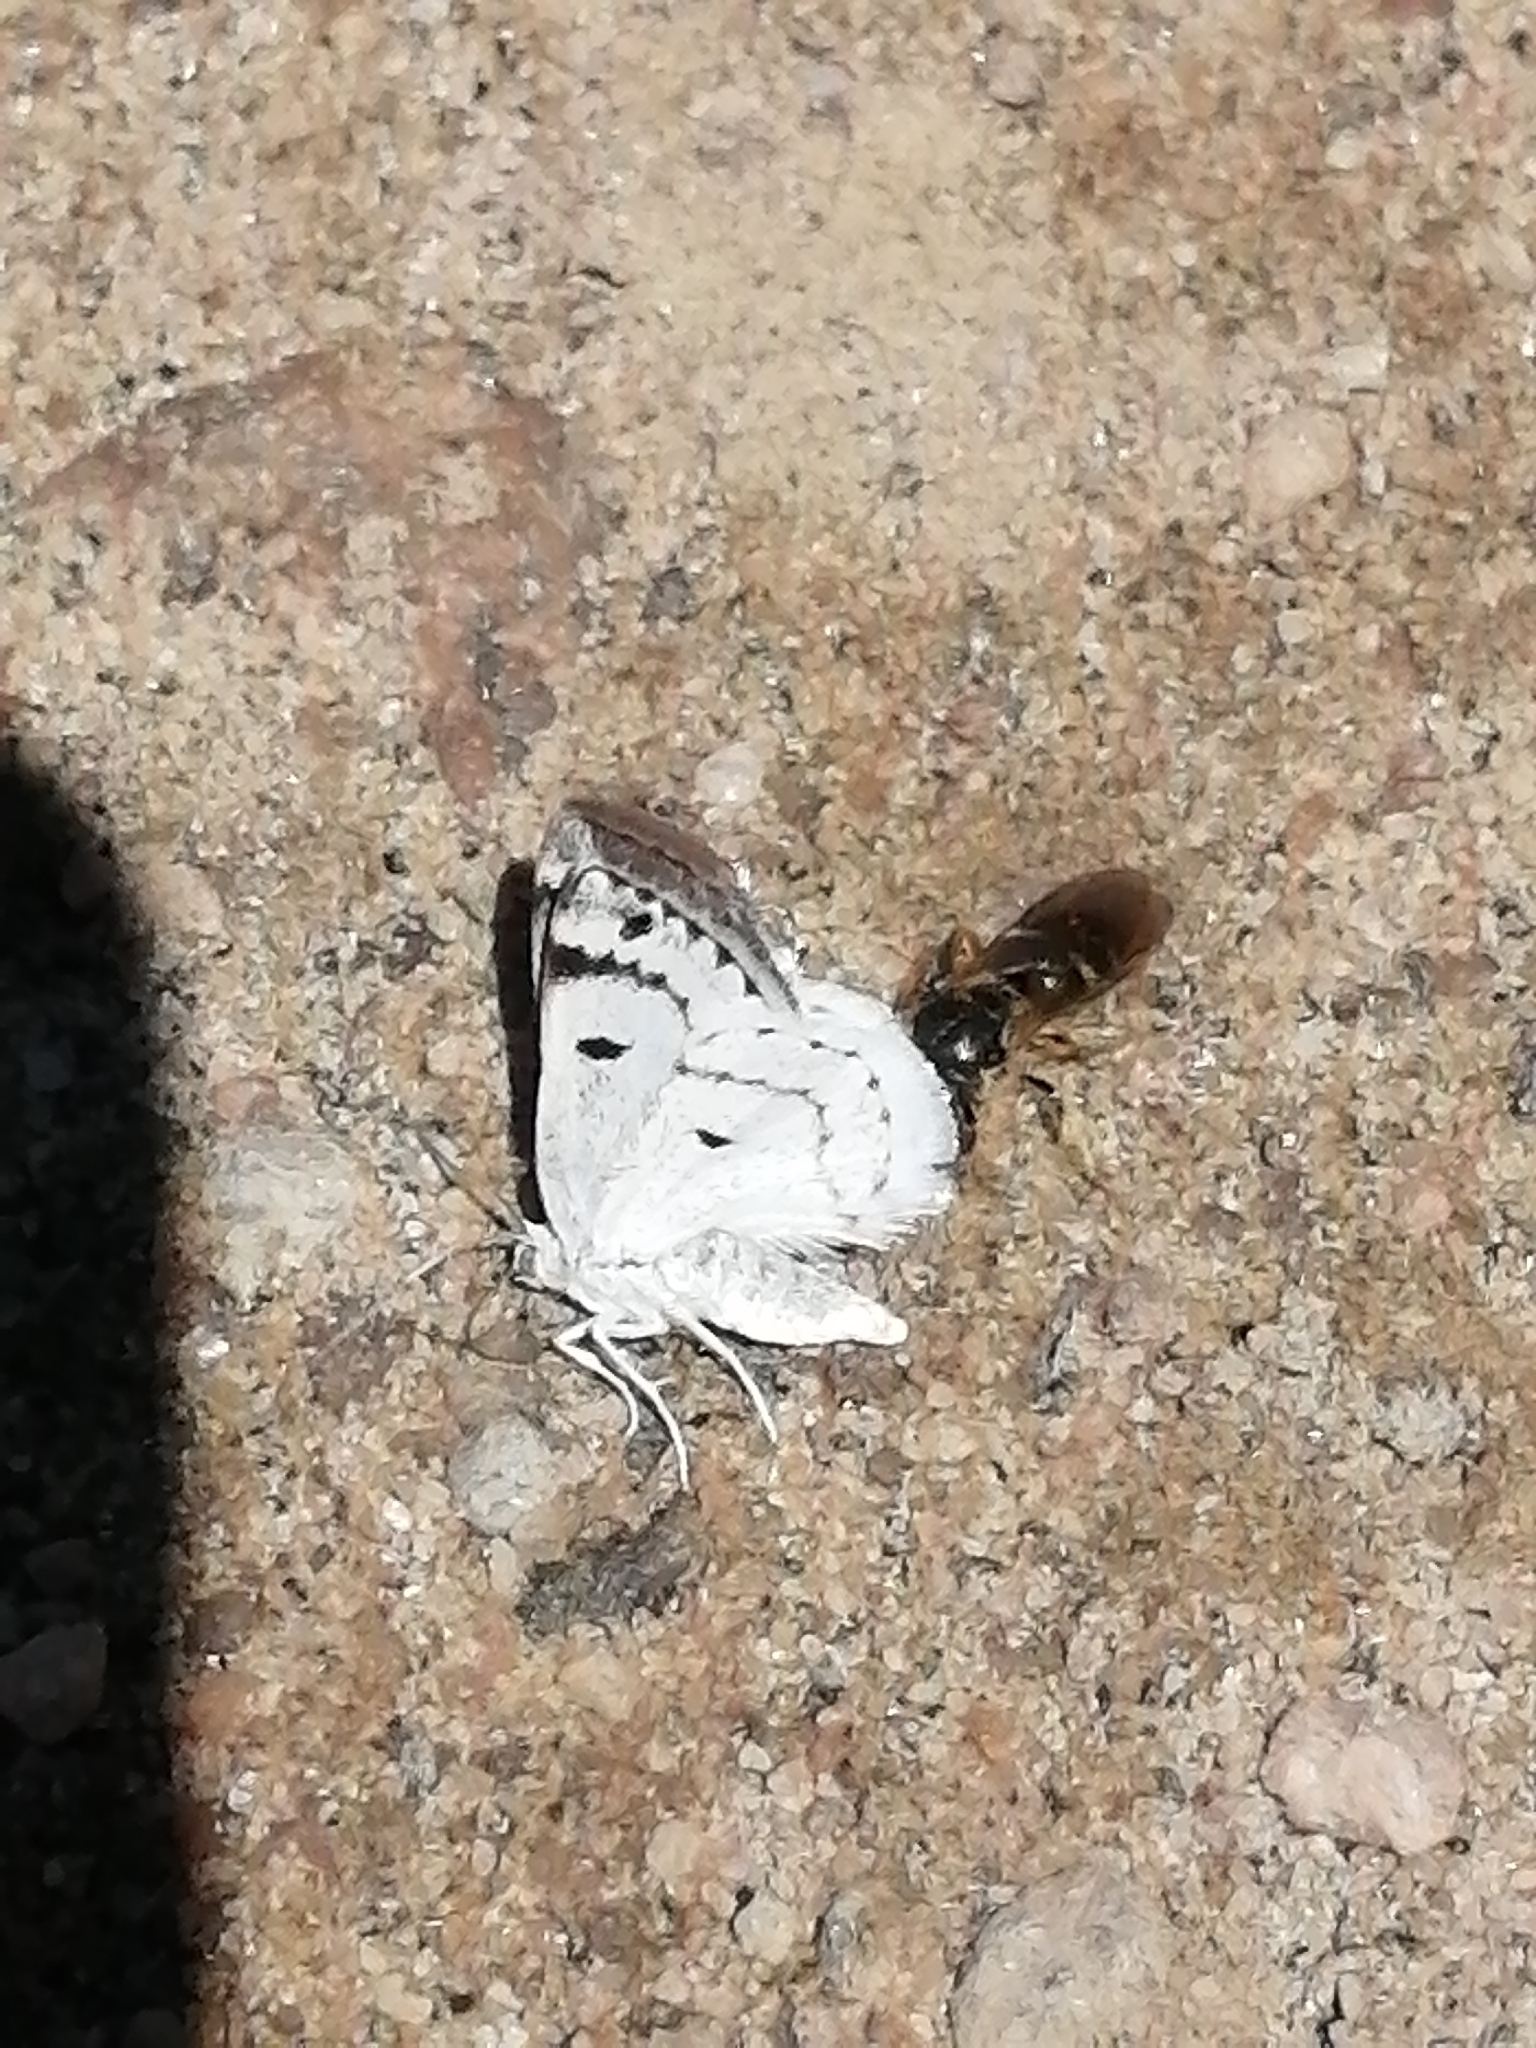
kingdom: Animalia
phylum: Arthropoda
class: Insecta
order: Lepidoptera
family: Geometridae
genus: Lomographa
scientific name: Lomographa semiclarata
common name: Bluish spring moth
